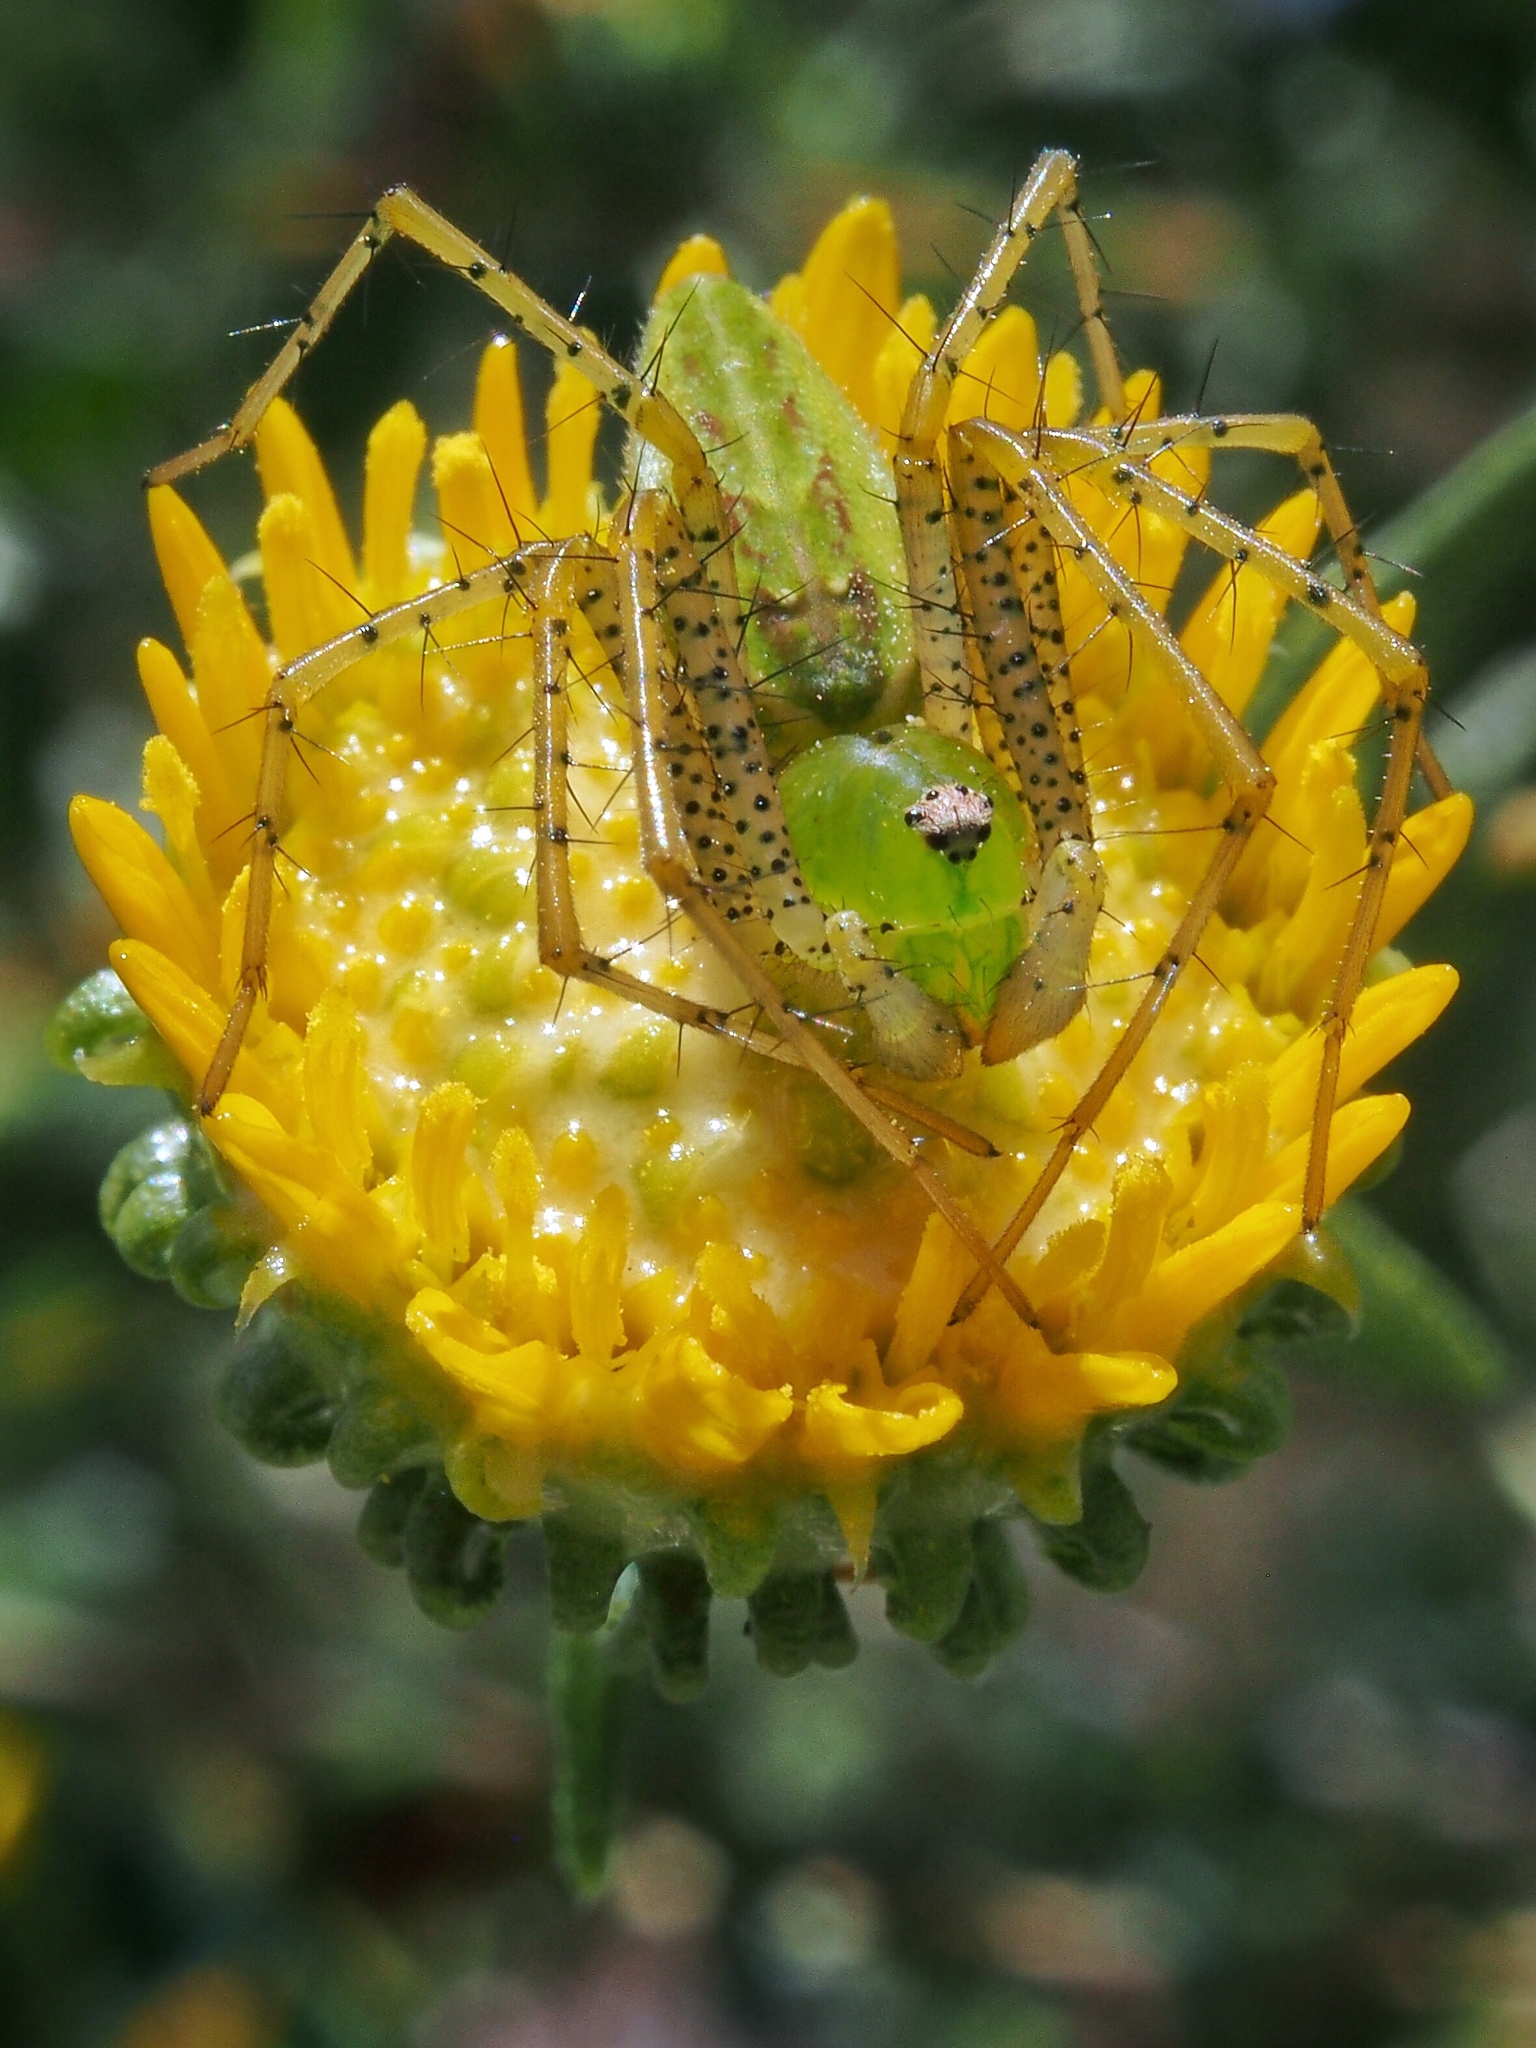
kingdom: Animalia
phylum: Arthropoda
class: Arachnida
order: Araneae
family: Oxyopidae
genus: Peucetia
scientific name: Peucetia viridans
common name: Lynx spiders
